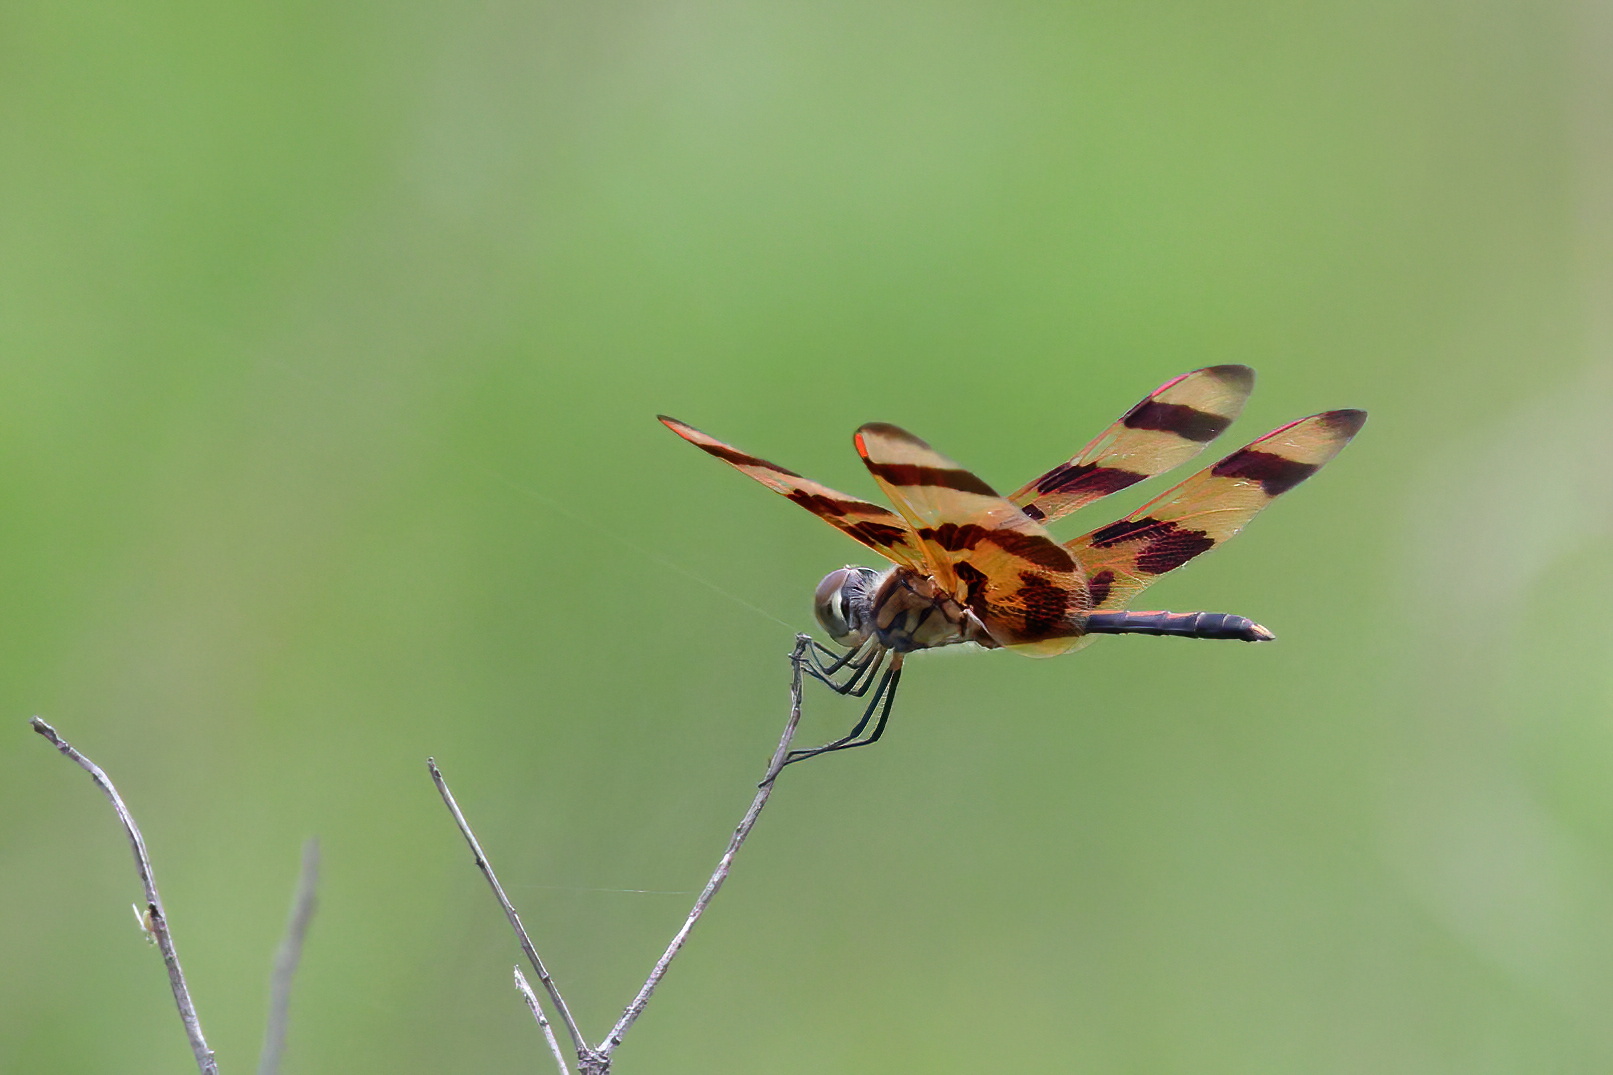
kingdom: Animalia
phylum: Arthropoda
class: Insecta
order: Odonata
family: Libellulidae
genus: Celithemis
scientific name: Celithemis eponina
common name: Halloween pennant
